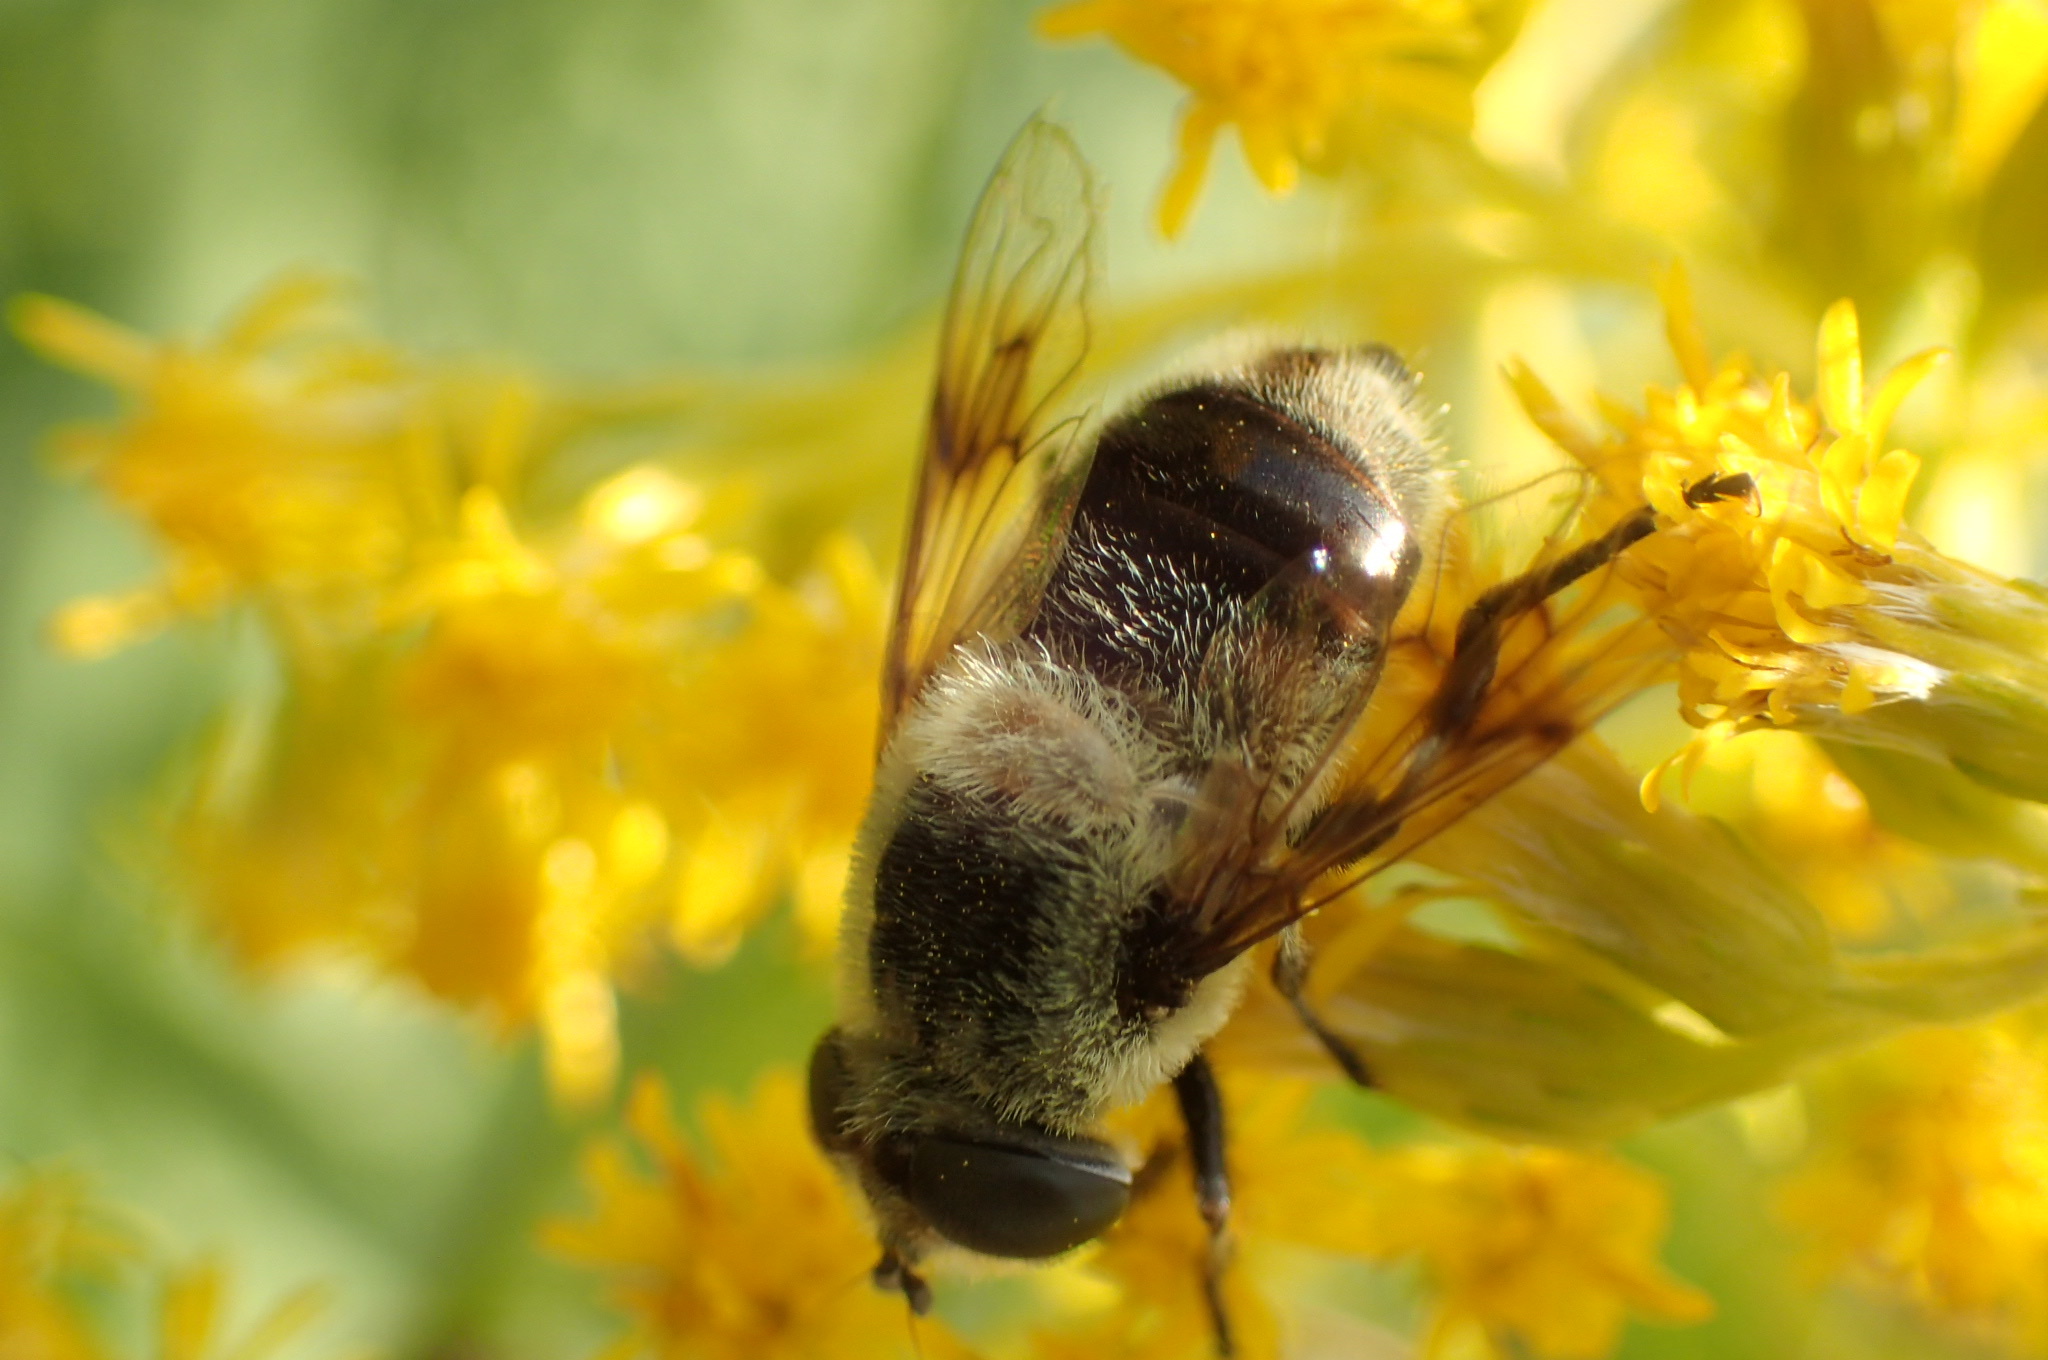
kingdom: Animalia
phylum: Arthropoda
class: Insecta
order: Diptera
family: Syrphidae
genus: Eristalis
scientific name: Eristalis anthophorina
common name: Orange-spotted drone fly
